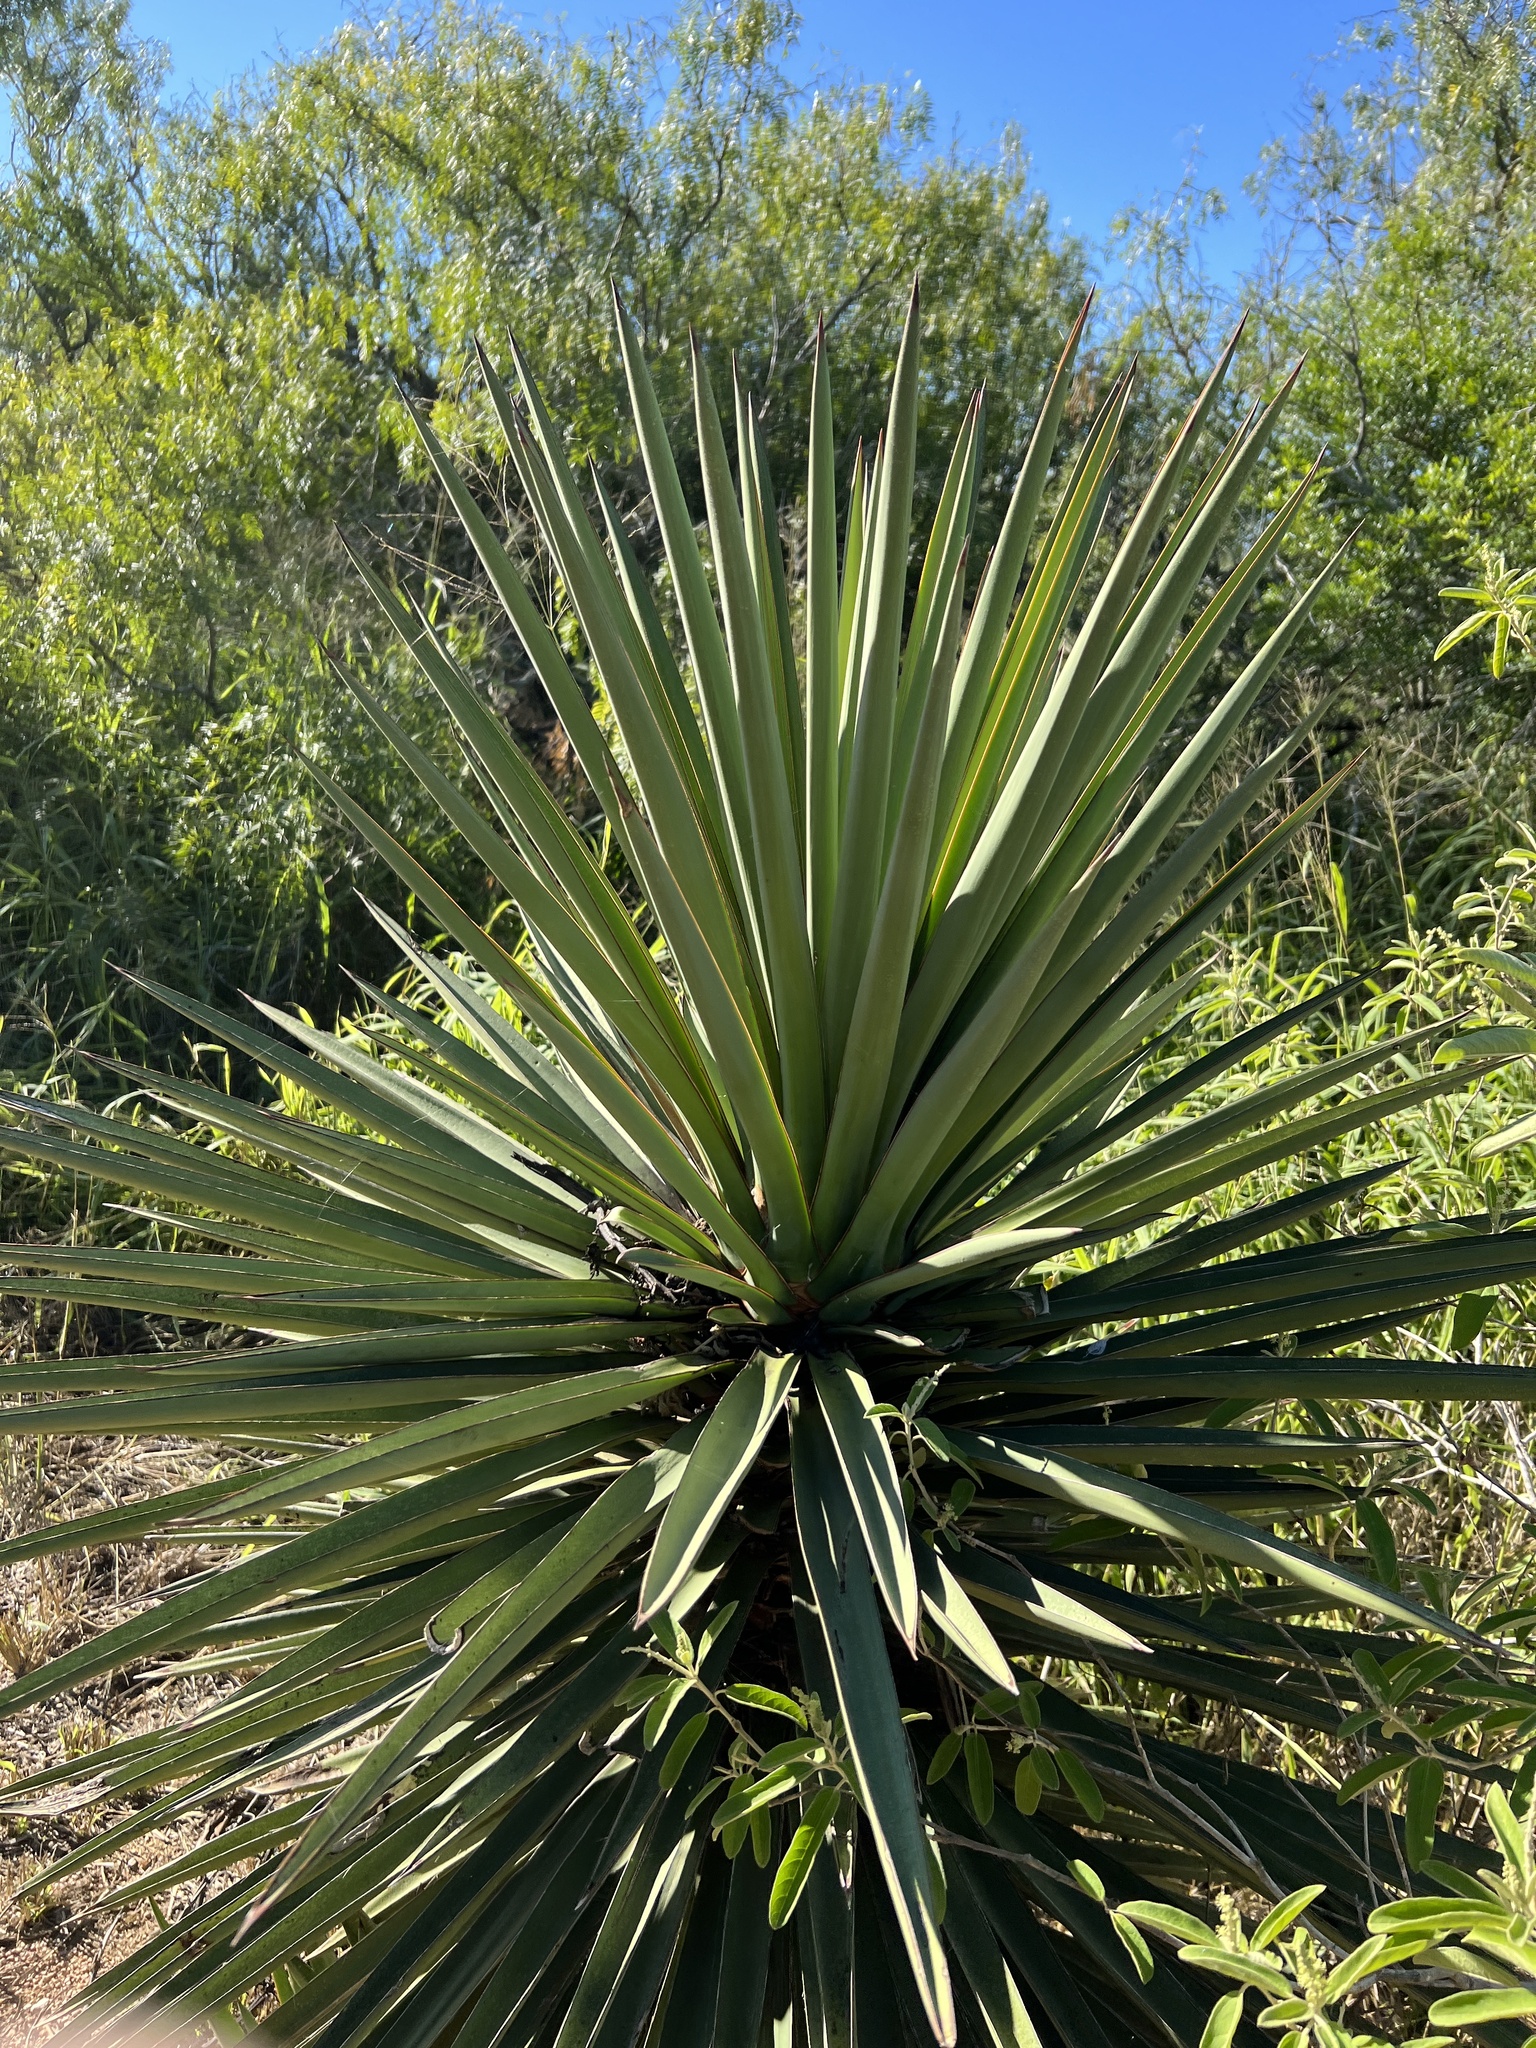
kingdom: Plantae
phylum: Tracheophyta
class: Liliopsida
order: Asparagales
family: Asparagaceae
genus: Yucca
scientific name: Yucca treculiana
